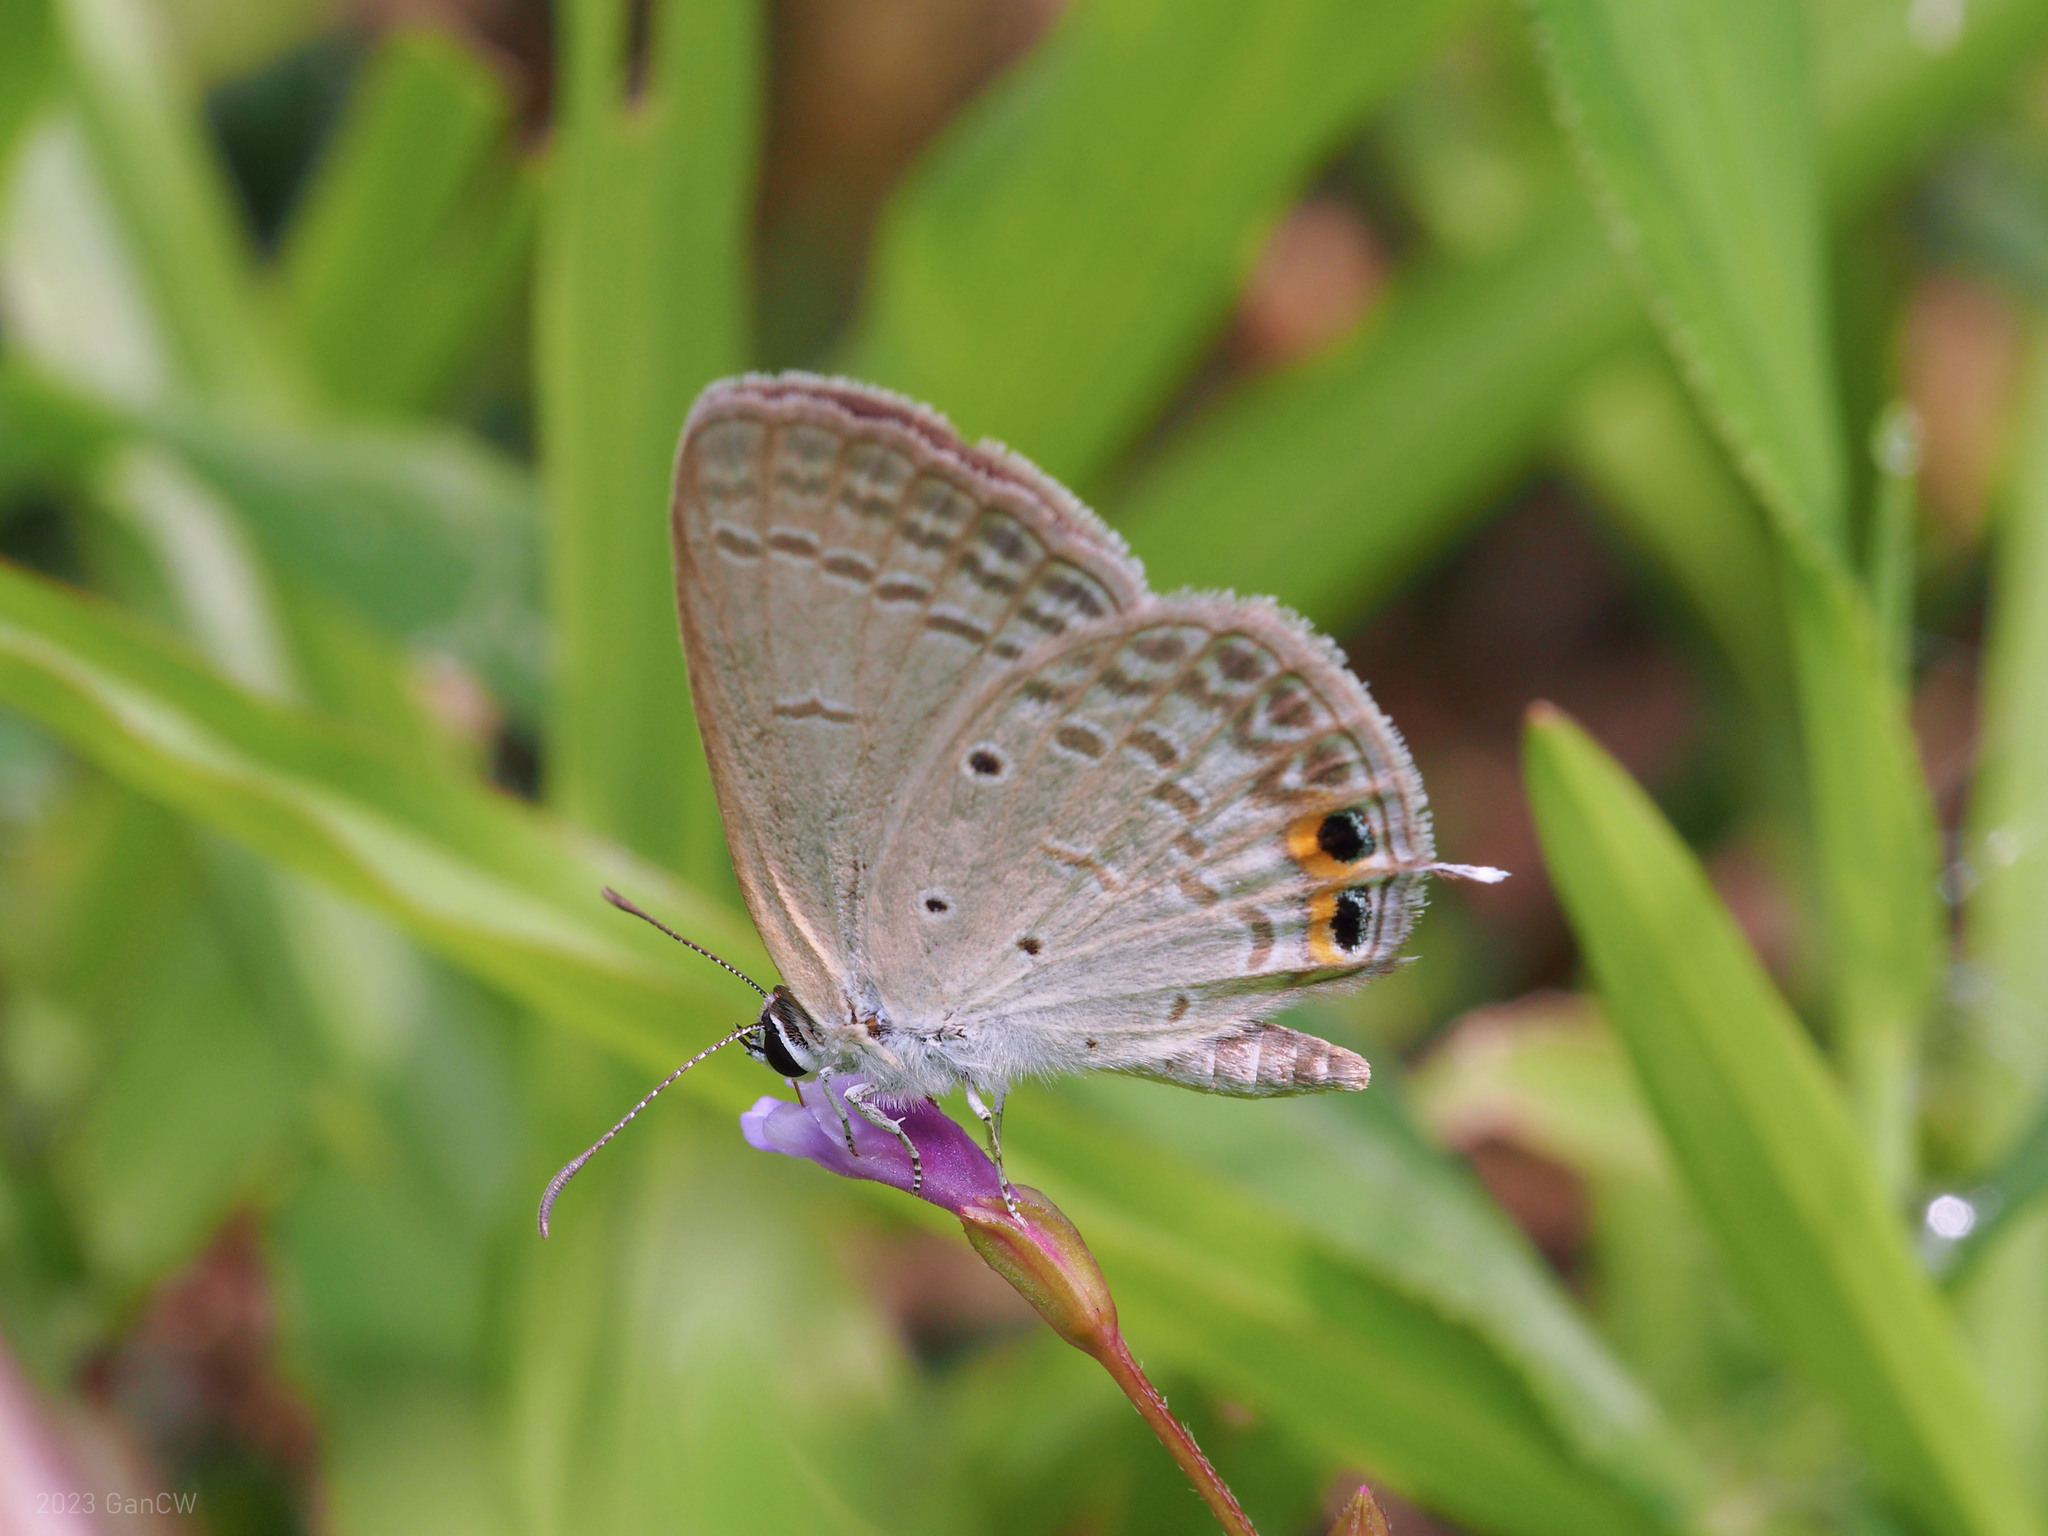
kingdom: Animalia
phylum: Arthropoda
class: Insecta
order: Lepidoptera
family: Lycaenidae
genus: Euchrysops
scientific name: Euchrysops cnejus
